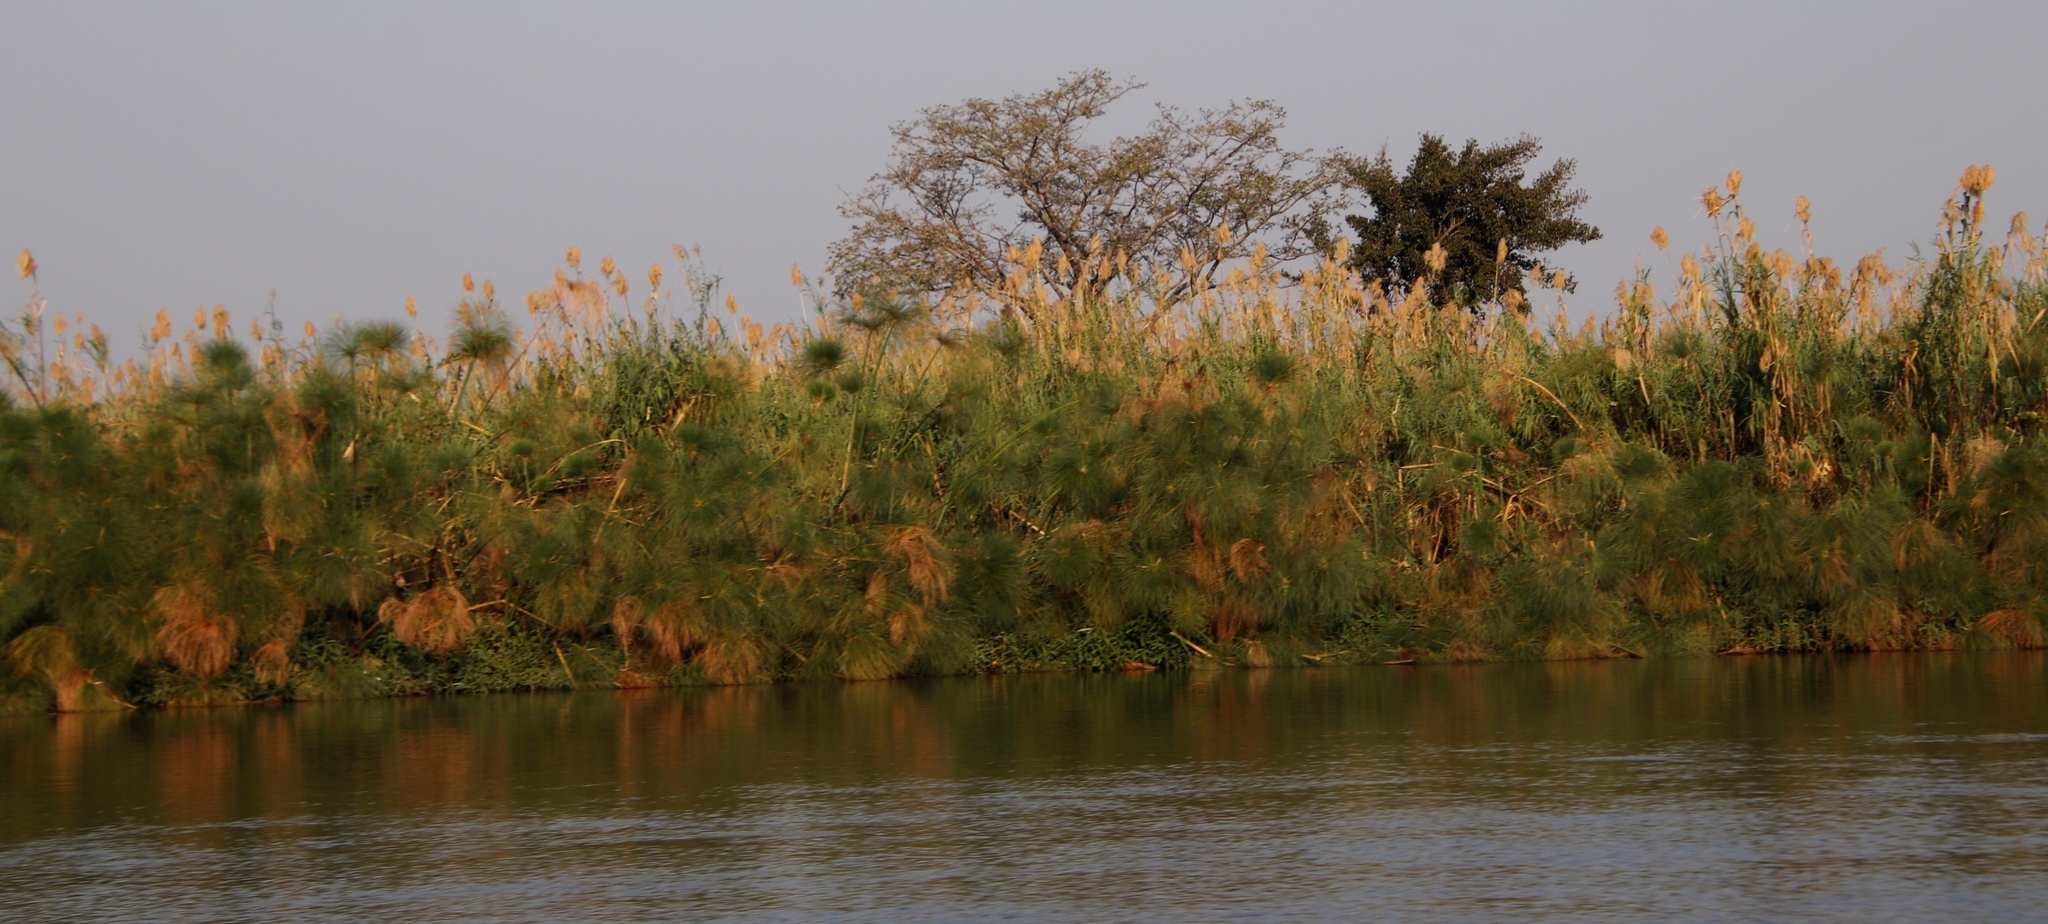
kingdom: Plantae
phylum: Tracheophyta
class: Liliopsida
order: Poales
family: Poaceae
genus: Phragmites
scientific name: Phragmites australis
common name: Common reed
